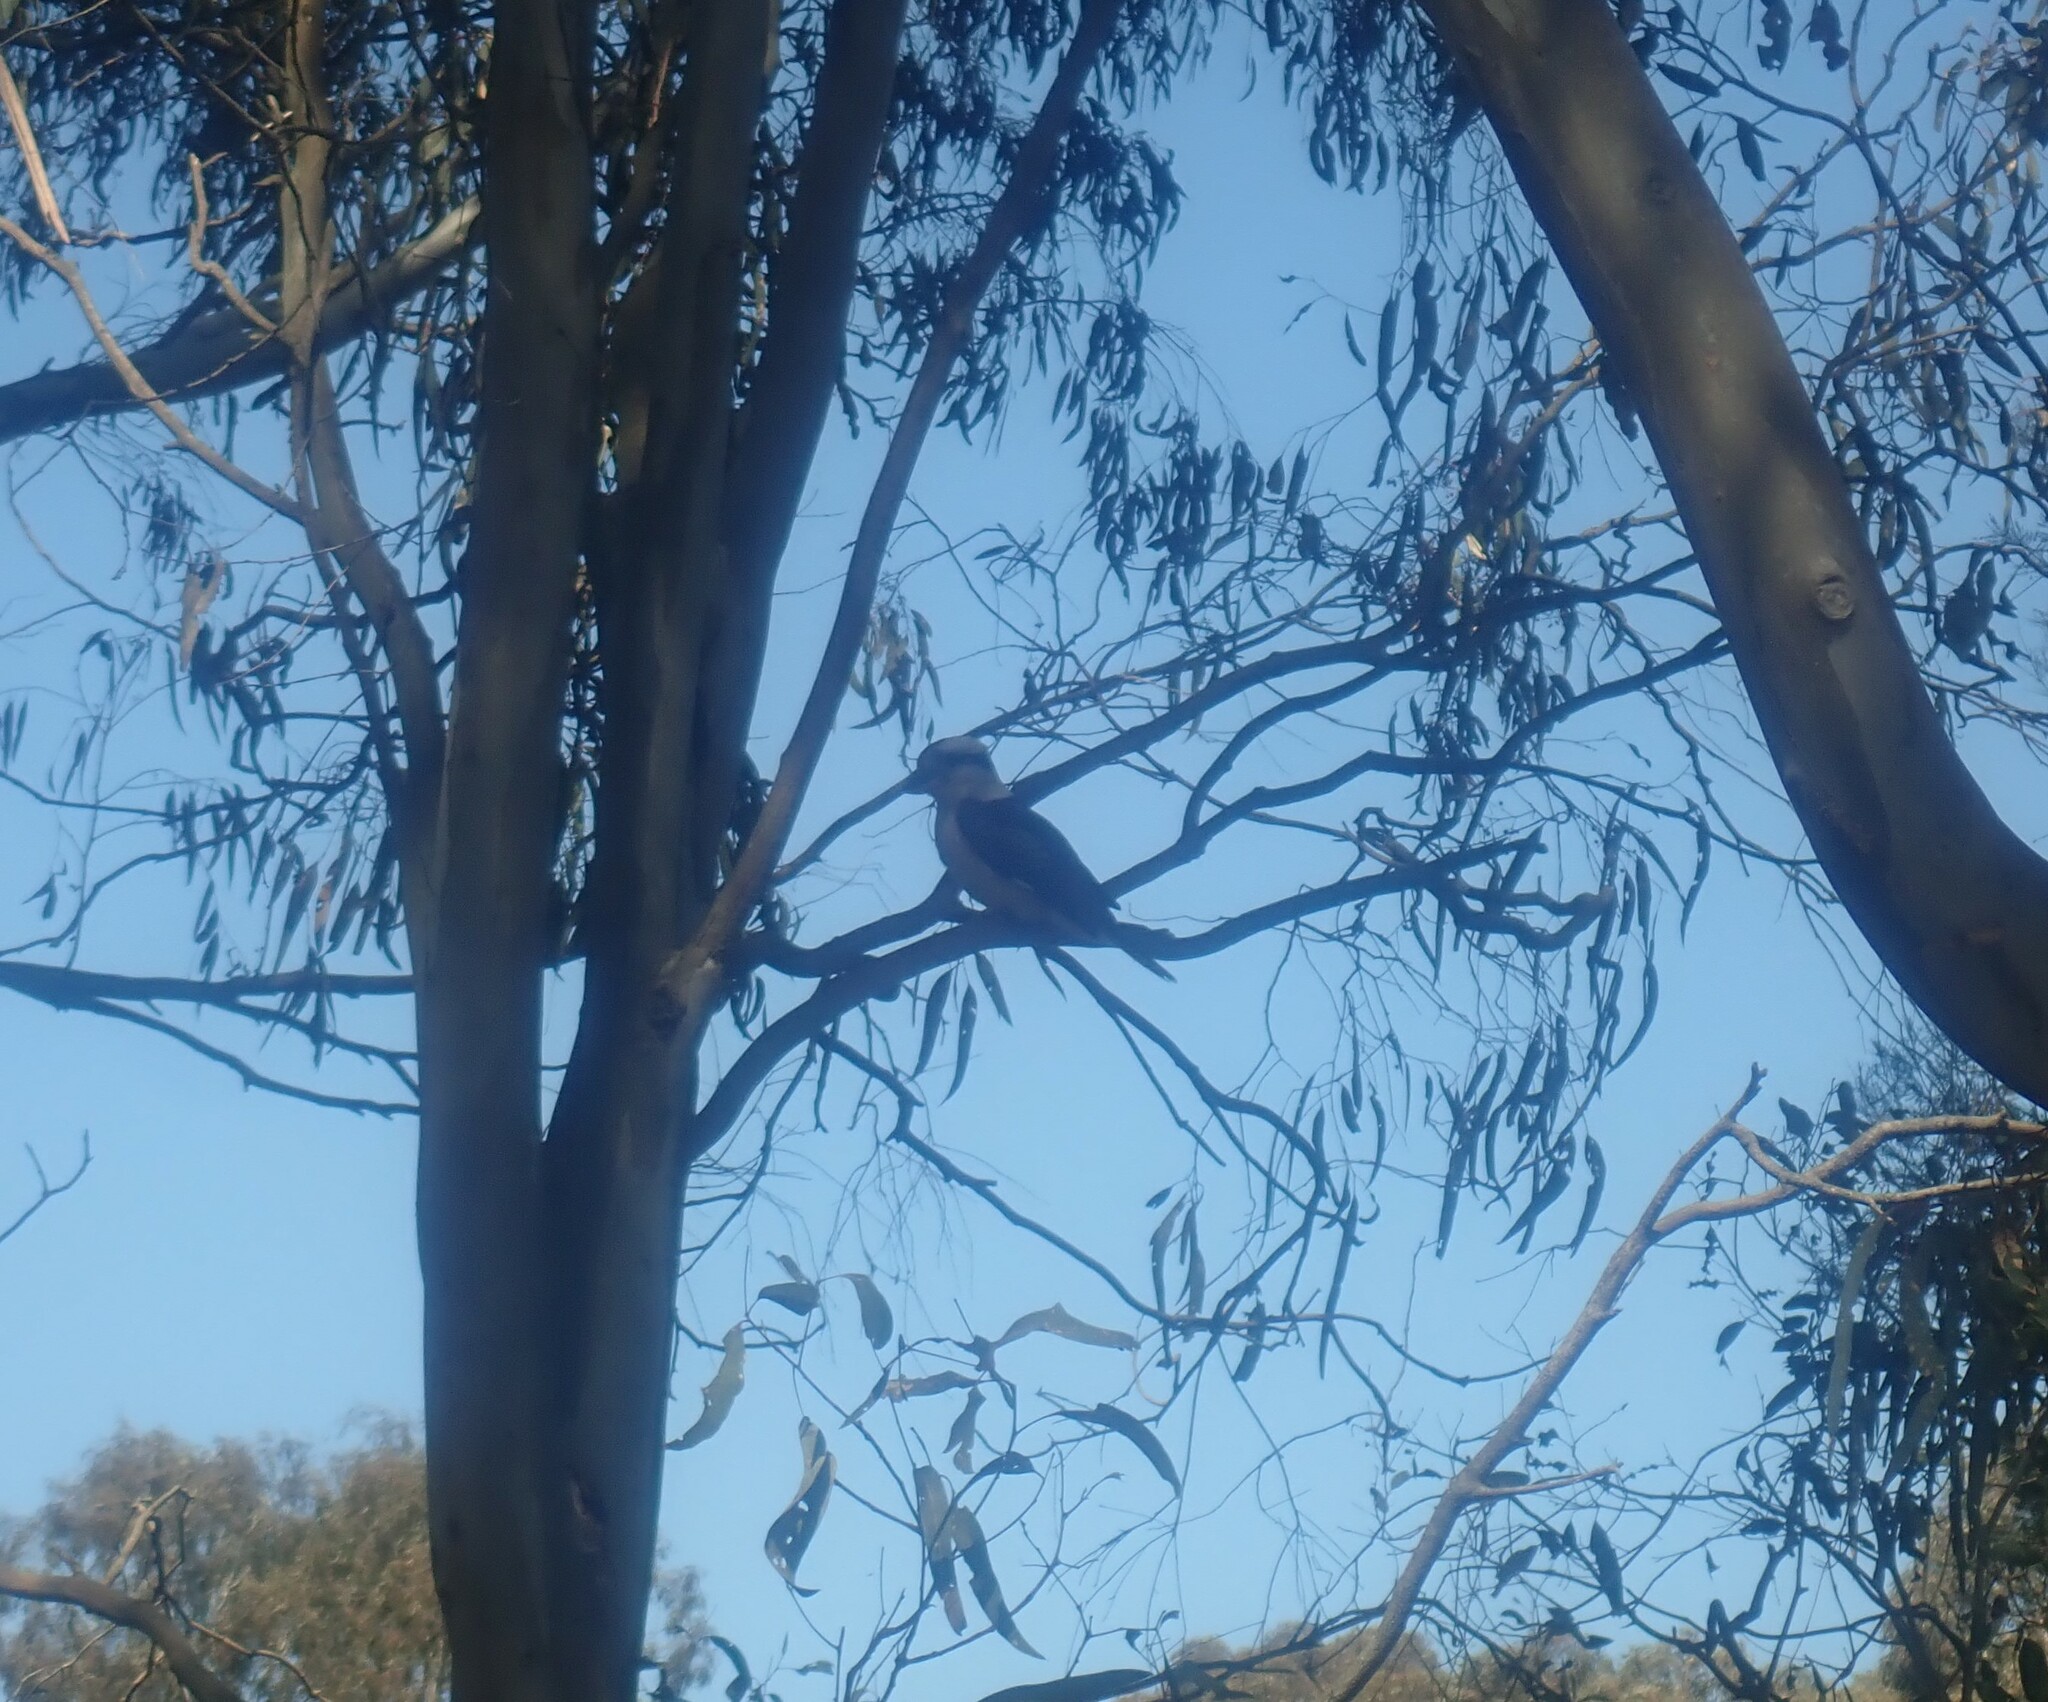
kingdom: Animalia
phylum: Chordata
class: Aves
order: Coraciiformes
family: Alcedinidae
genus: Dacelo
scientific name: Dacelo novaeguineae
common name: Laughing kookaburra
